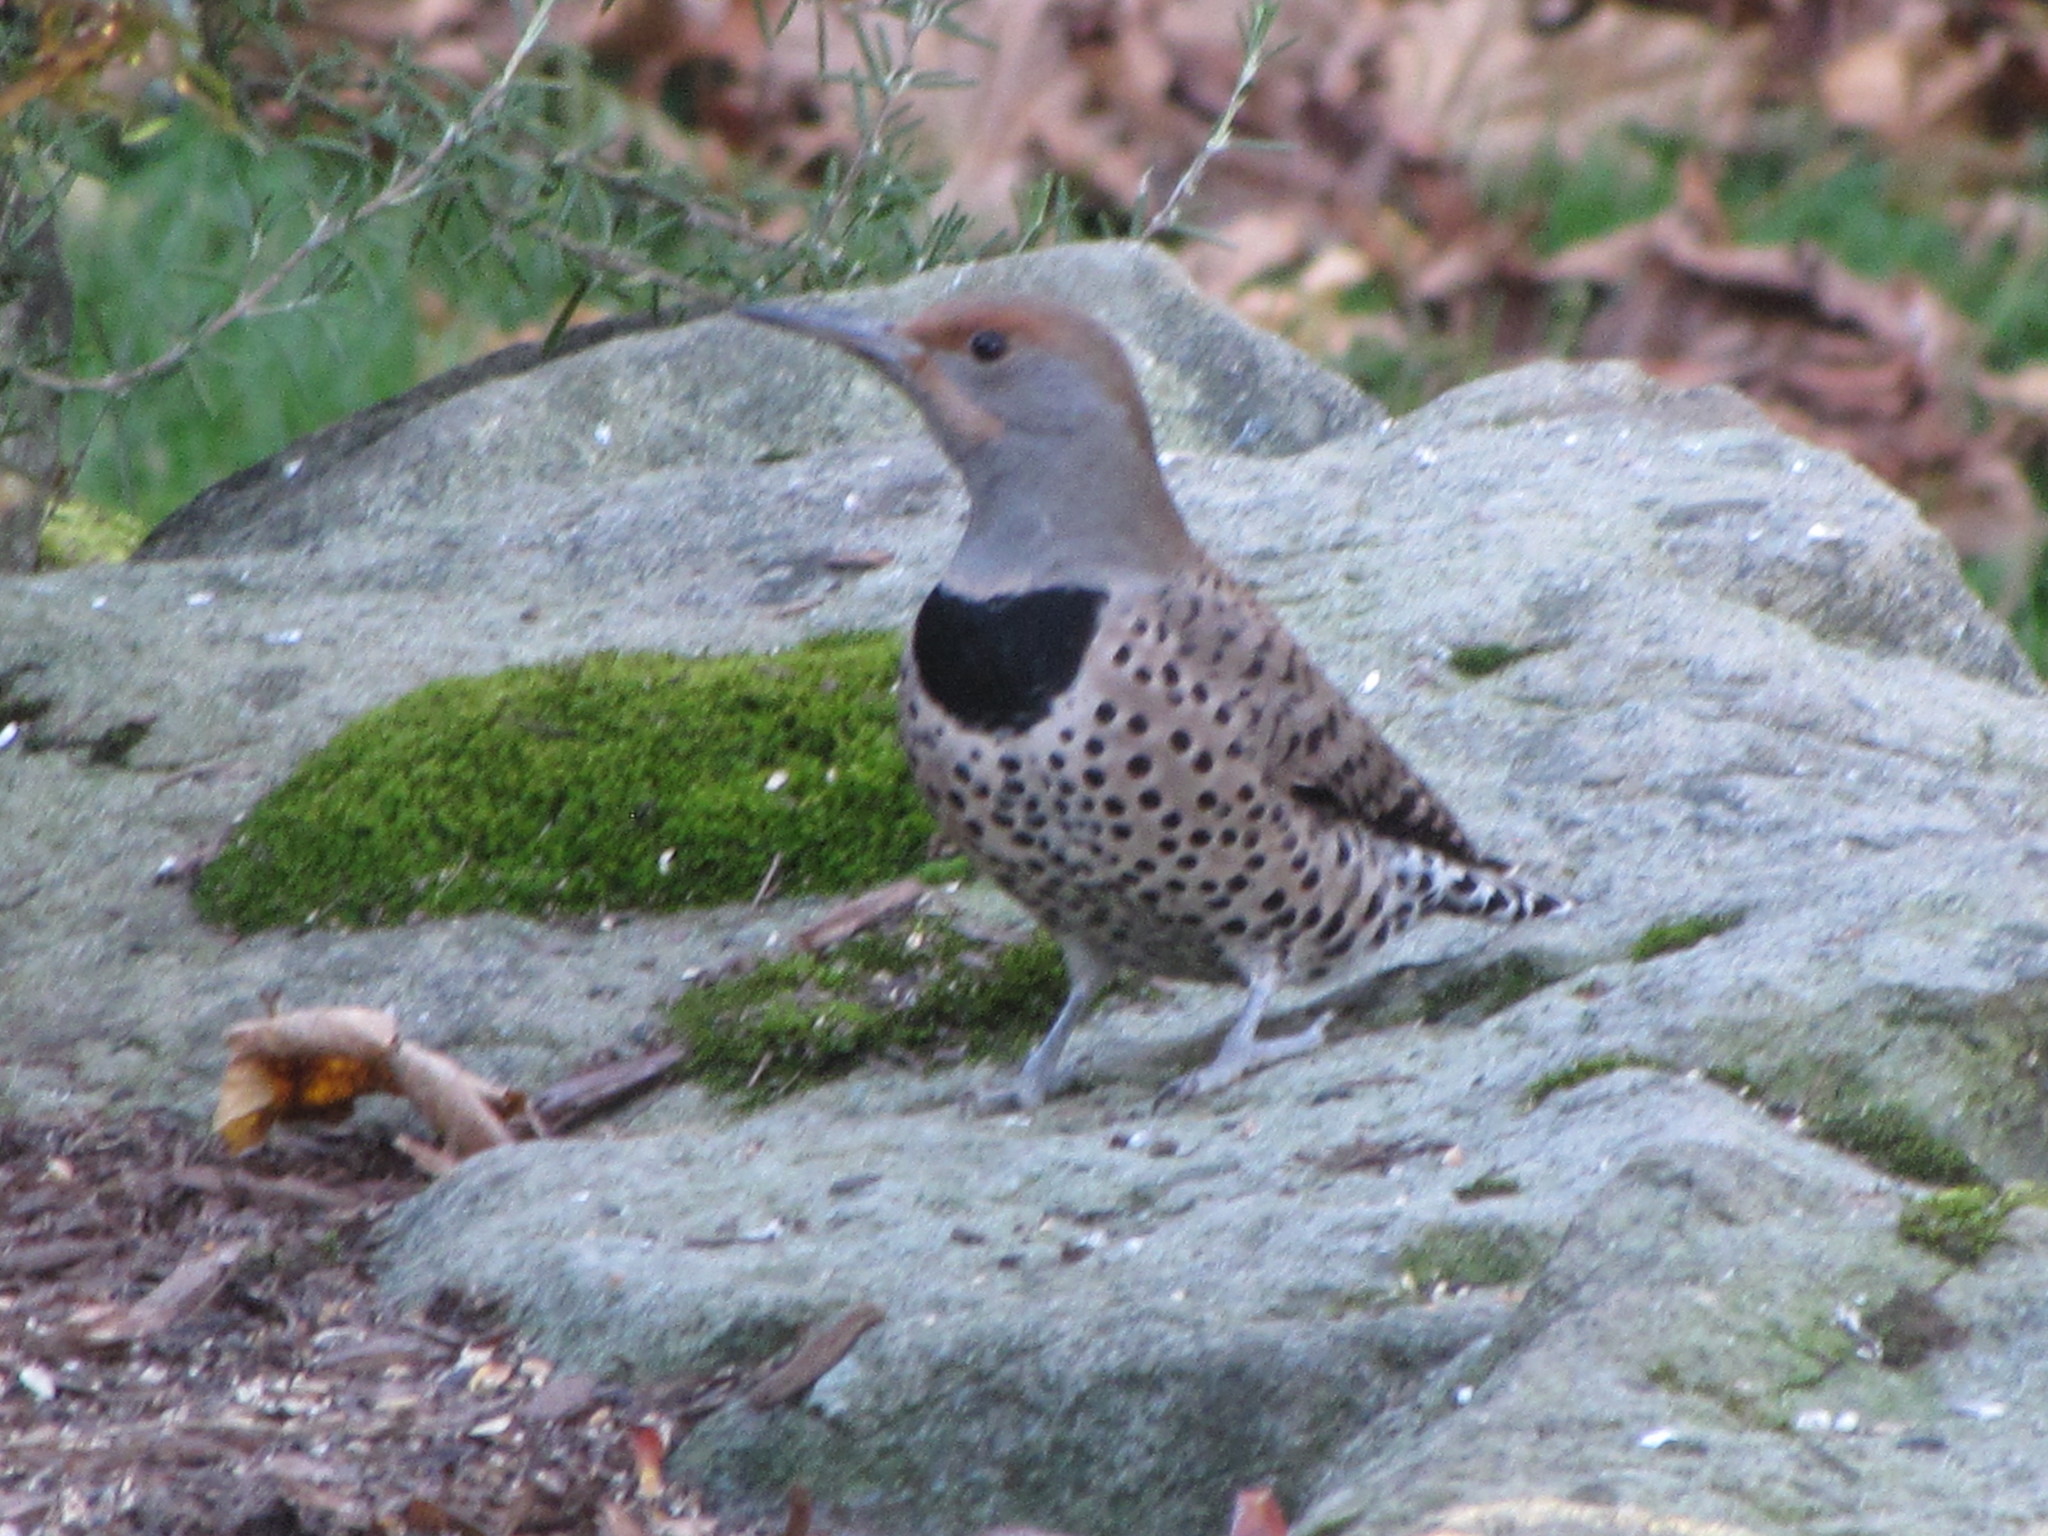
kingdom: Animalia
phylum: Chordata
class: Aves
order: Piciformes
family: Picidae
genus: Colaptes
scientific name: Colaptes auratus
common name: Northern flicker
